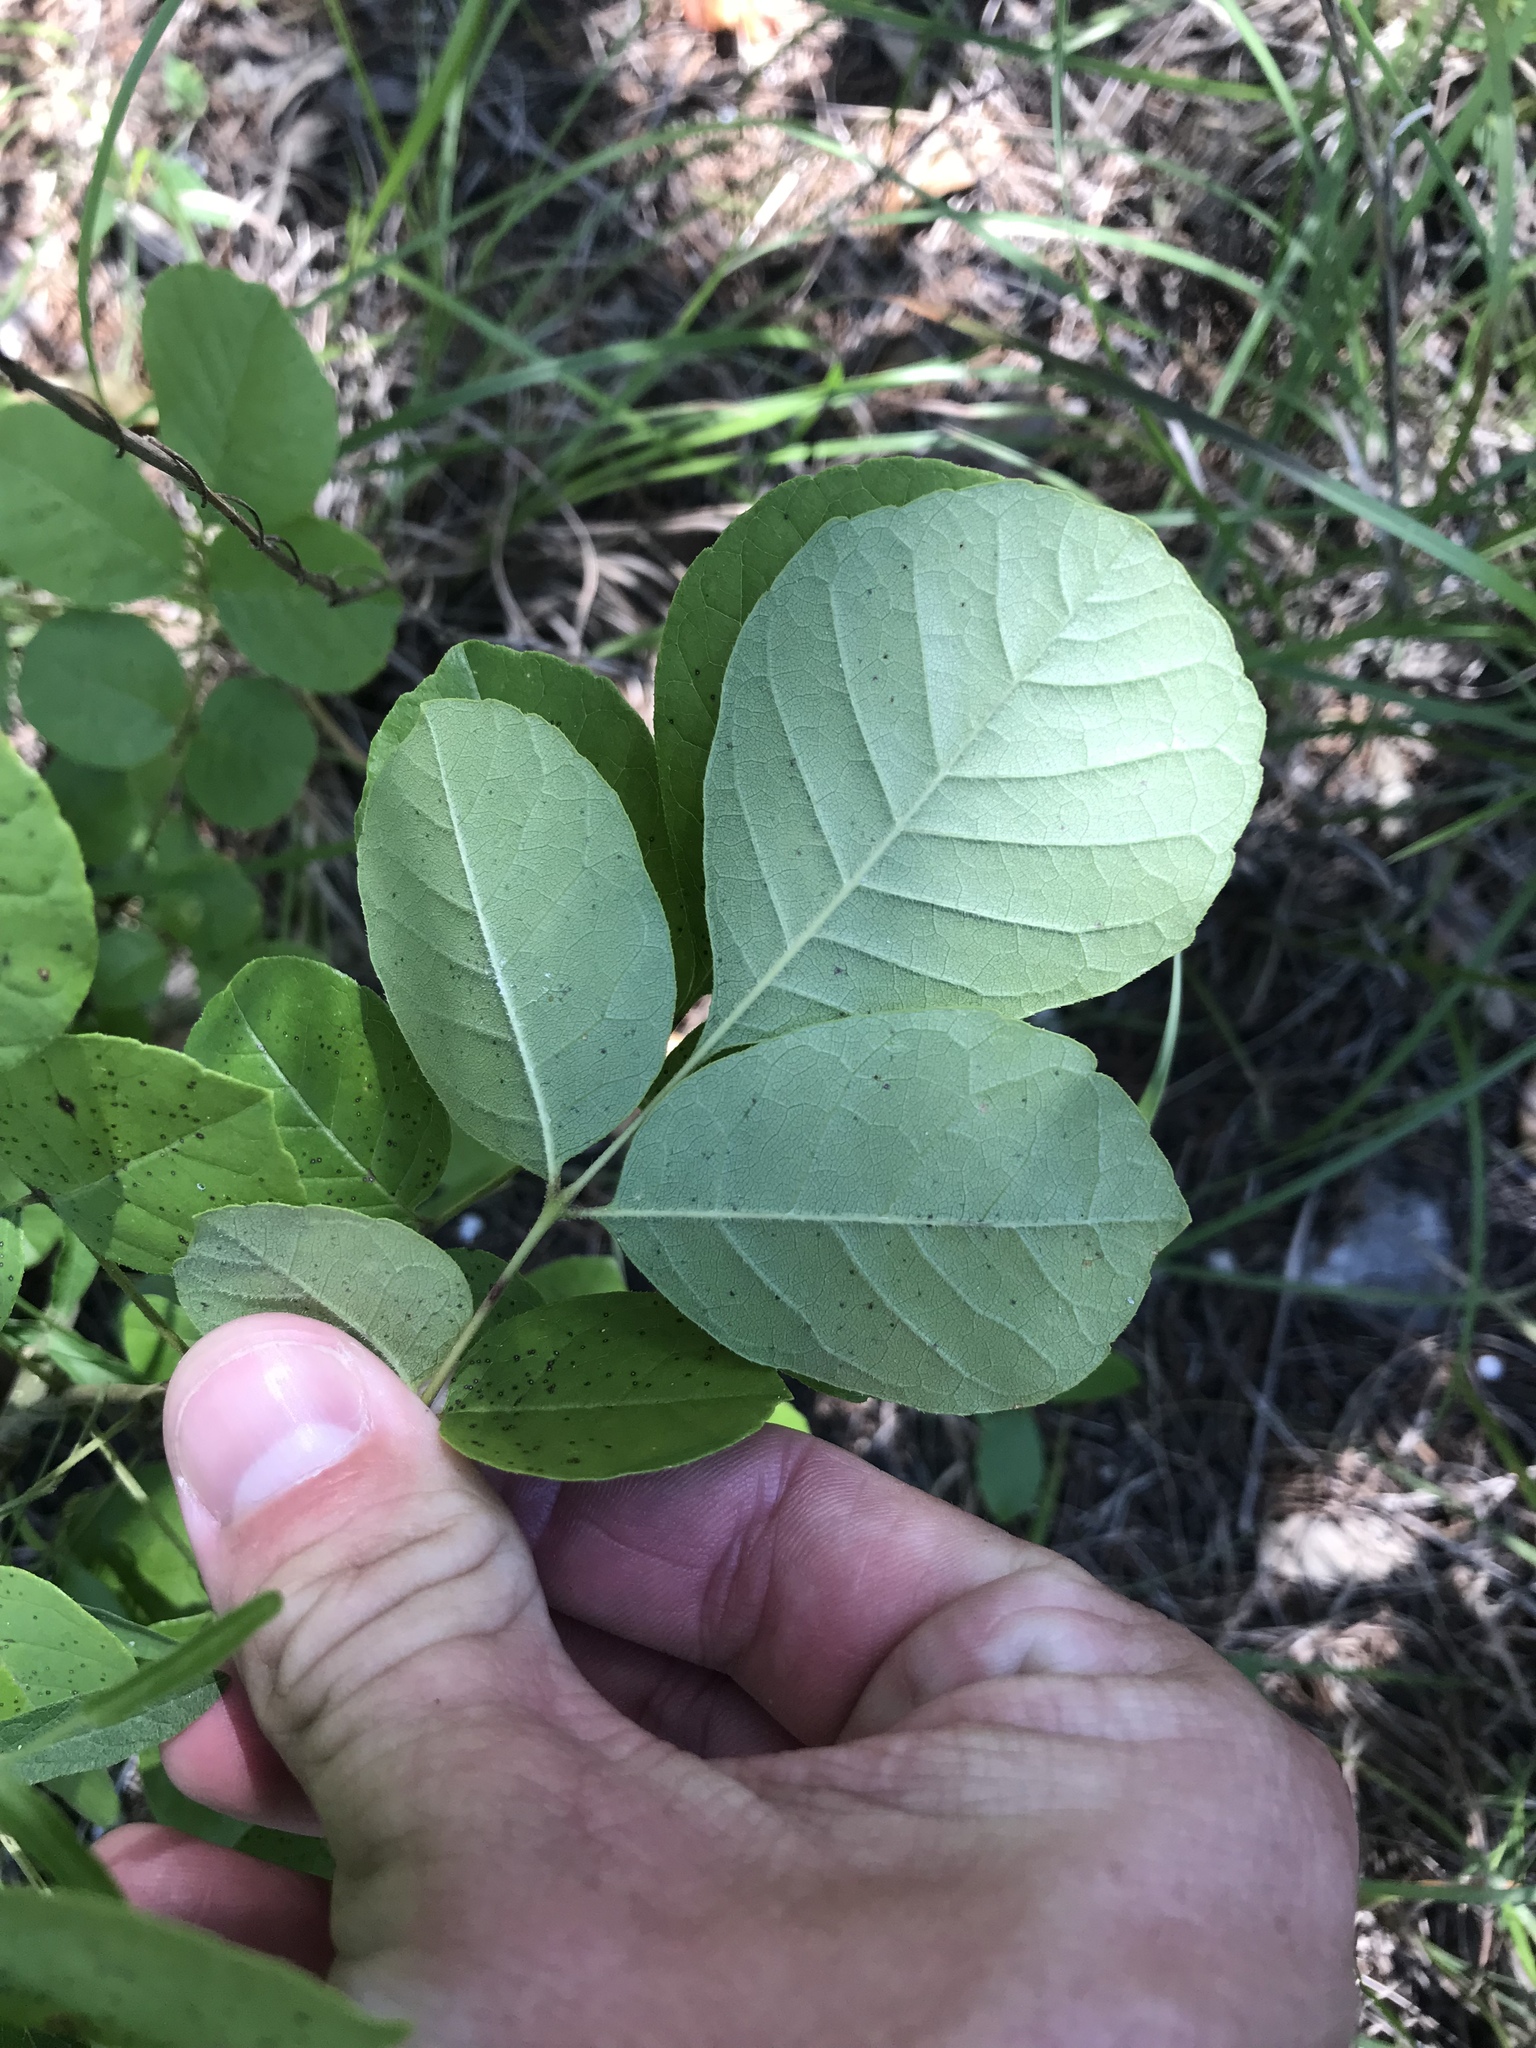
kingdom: Plantae
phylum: Tracheophyta
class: Magnoliopsida
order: Sapindales
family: Rutaceae
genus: Ptelea
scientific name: Ptelea trifoliata
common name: Common hop-tree
